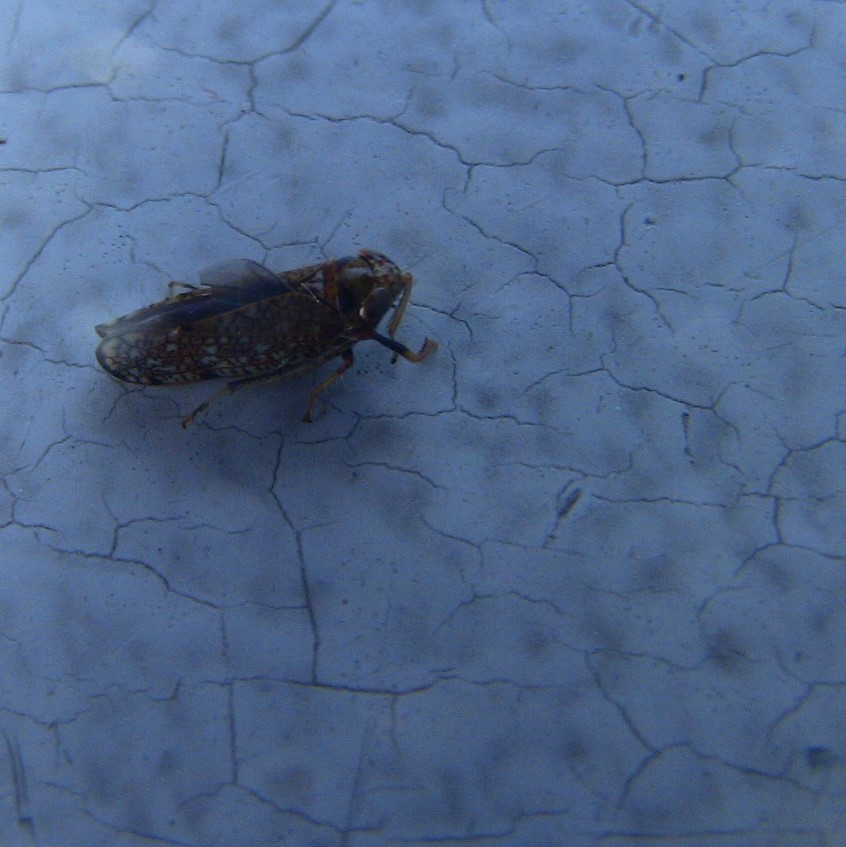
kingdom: Animalia
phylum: Arthropoda
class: Insecta
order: Hemiptera
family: Cicadellidae
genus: Orientus
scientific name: Orientus ishidae
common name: Japanese leafhopper
